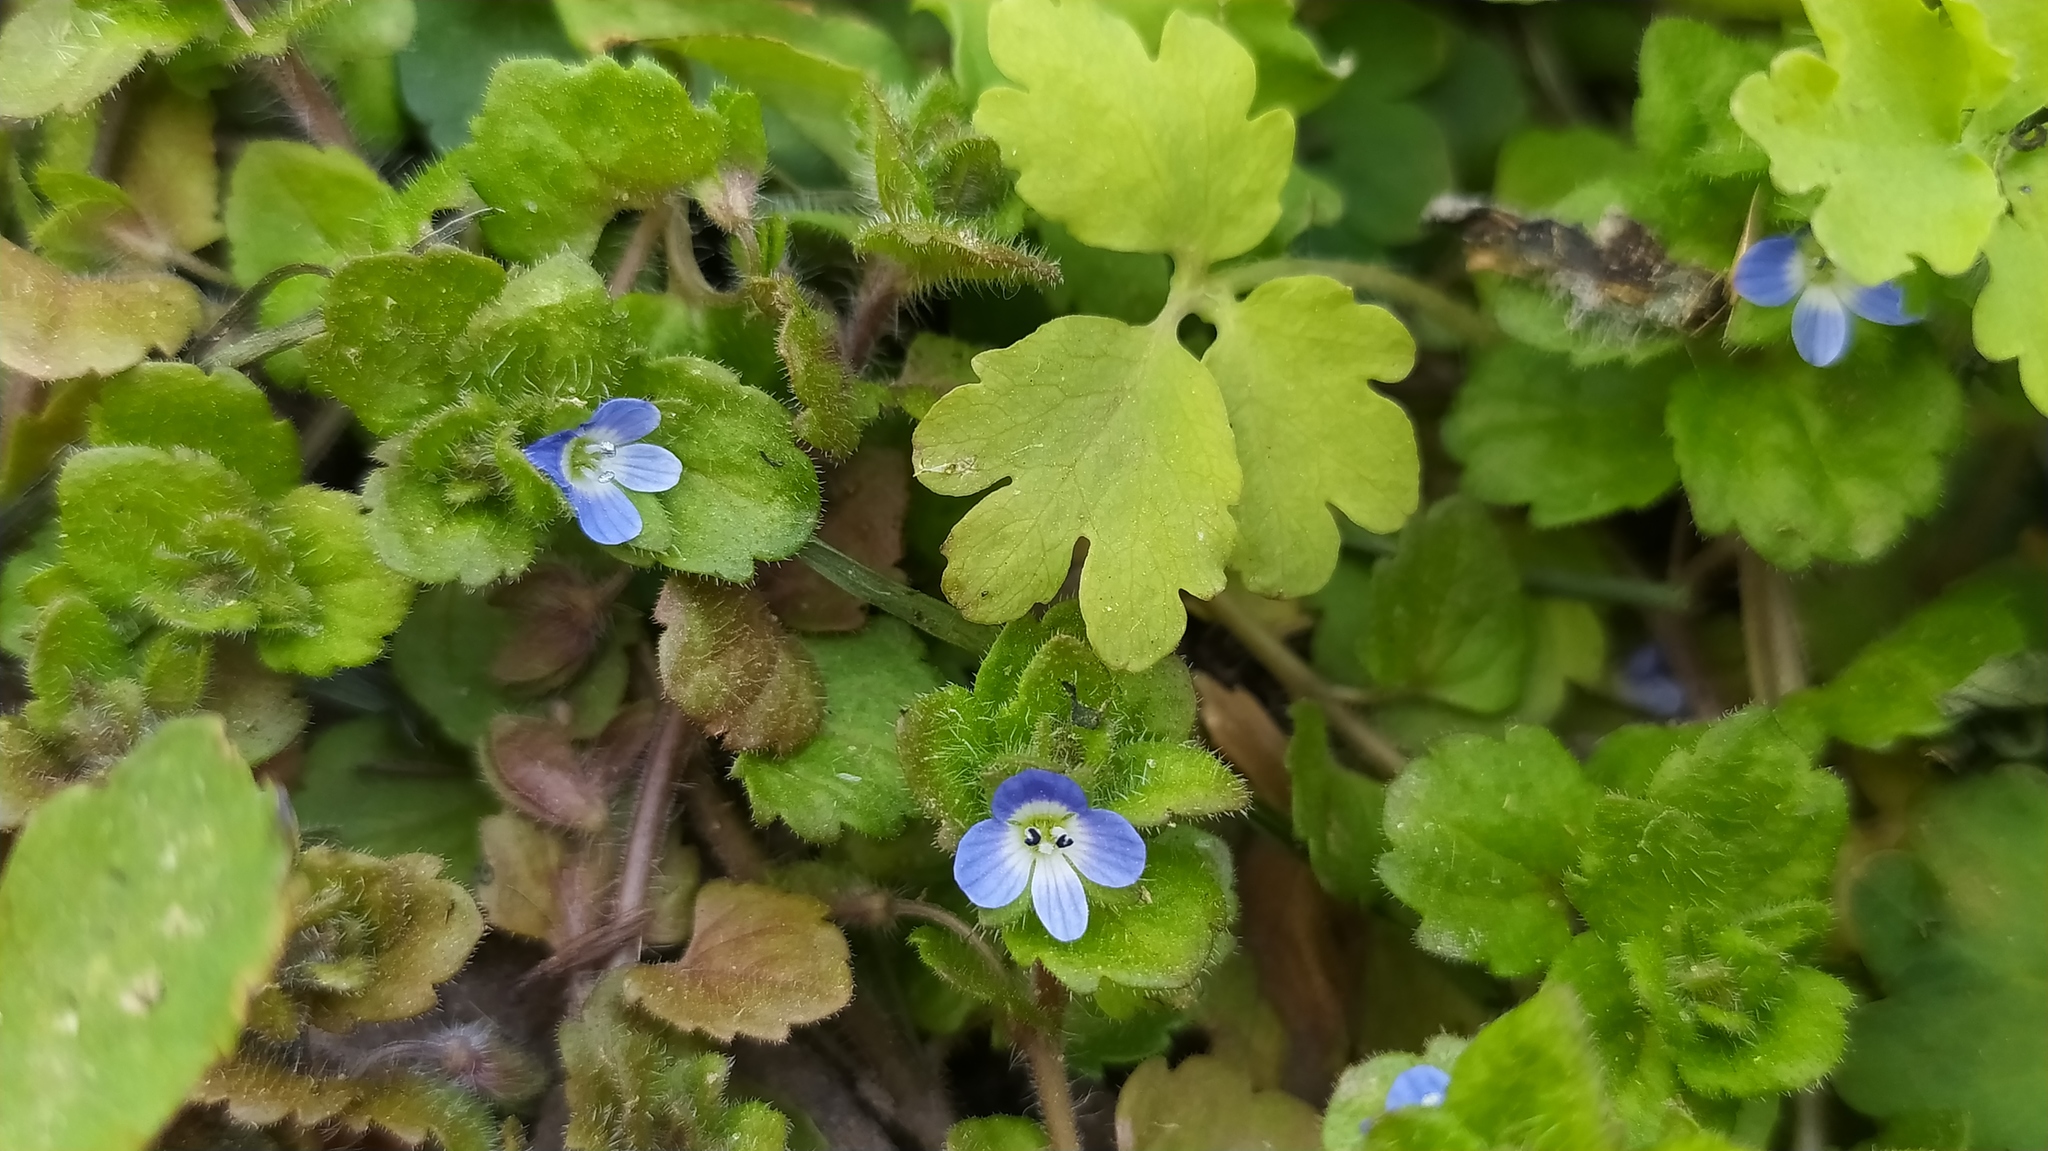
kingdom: Plantae
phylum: Tracheophyta
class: Magnoliopsida
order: Lamiales
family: Plantaginaceae
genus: Veronica
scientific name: Veronica opaca
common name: Dark speedwell
